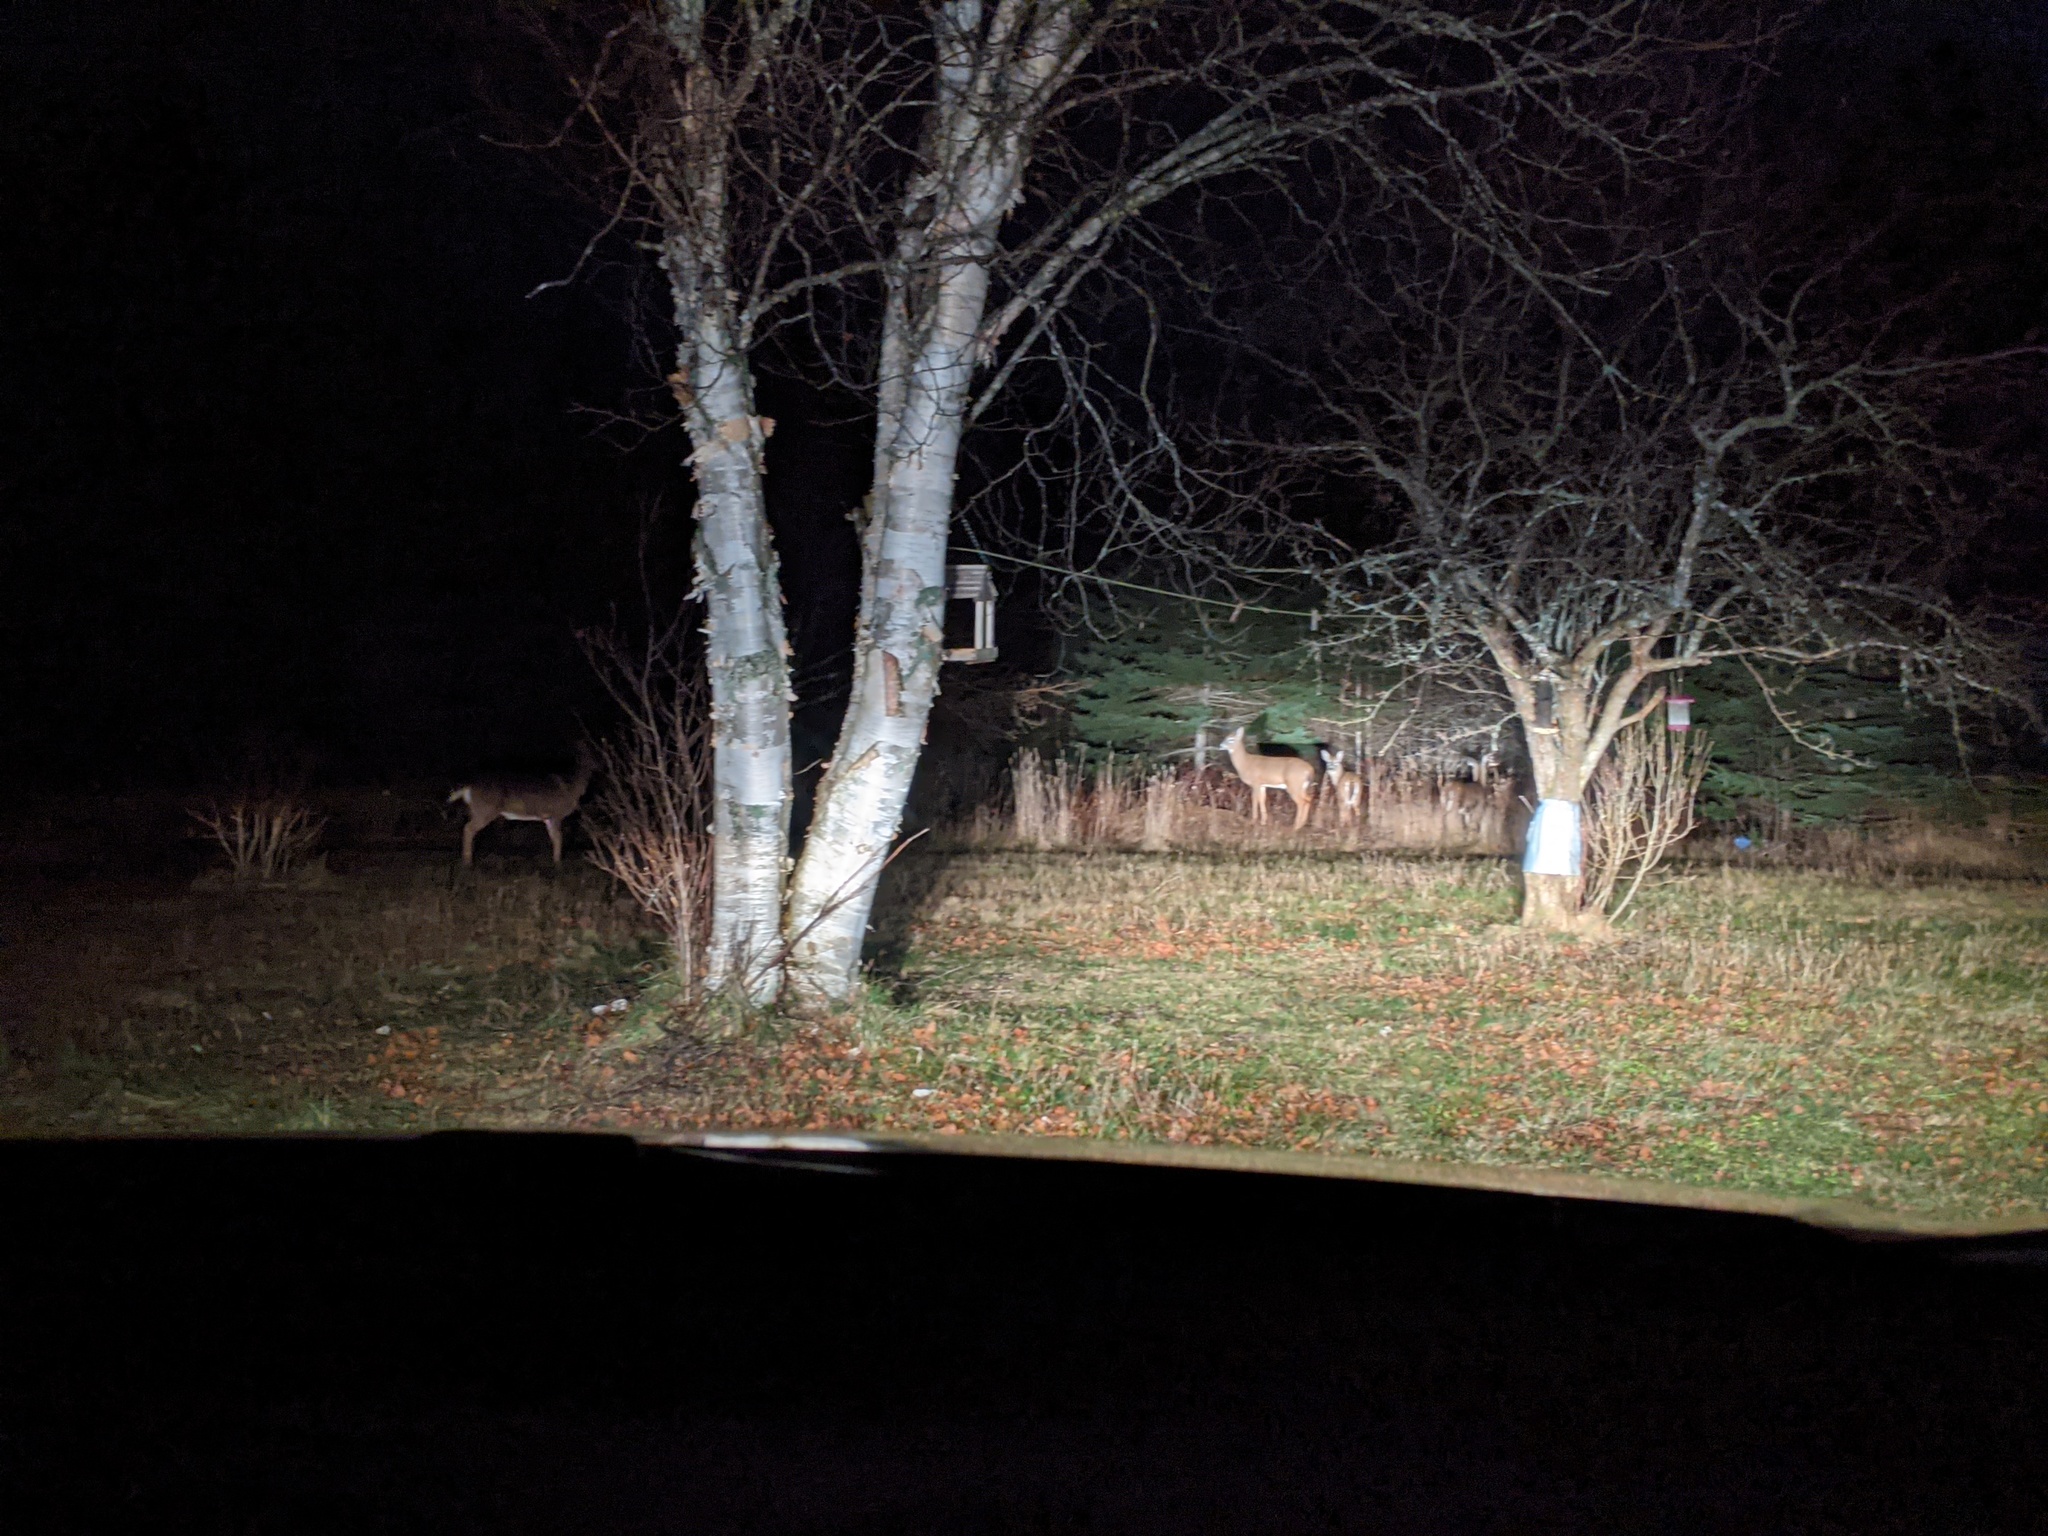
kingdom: Animalia
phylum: Chordata
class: Mammalia
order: Artiodactyla
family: Cervidae
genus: Odocoileus
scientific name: Odocoileus virginianus
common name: White-tailed deer
